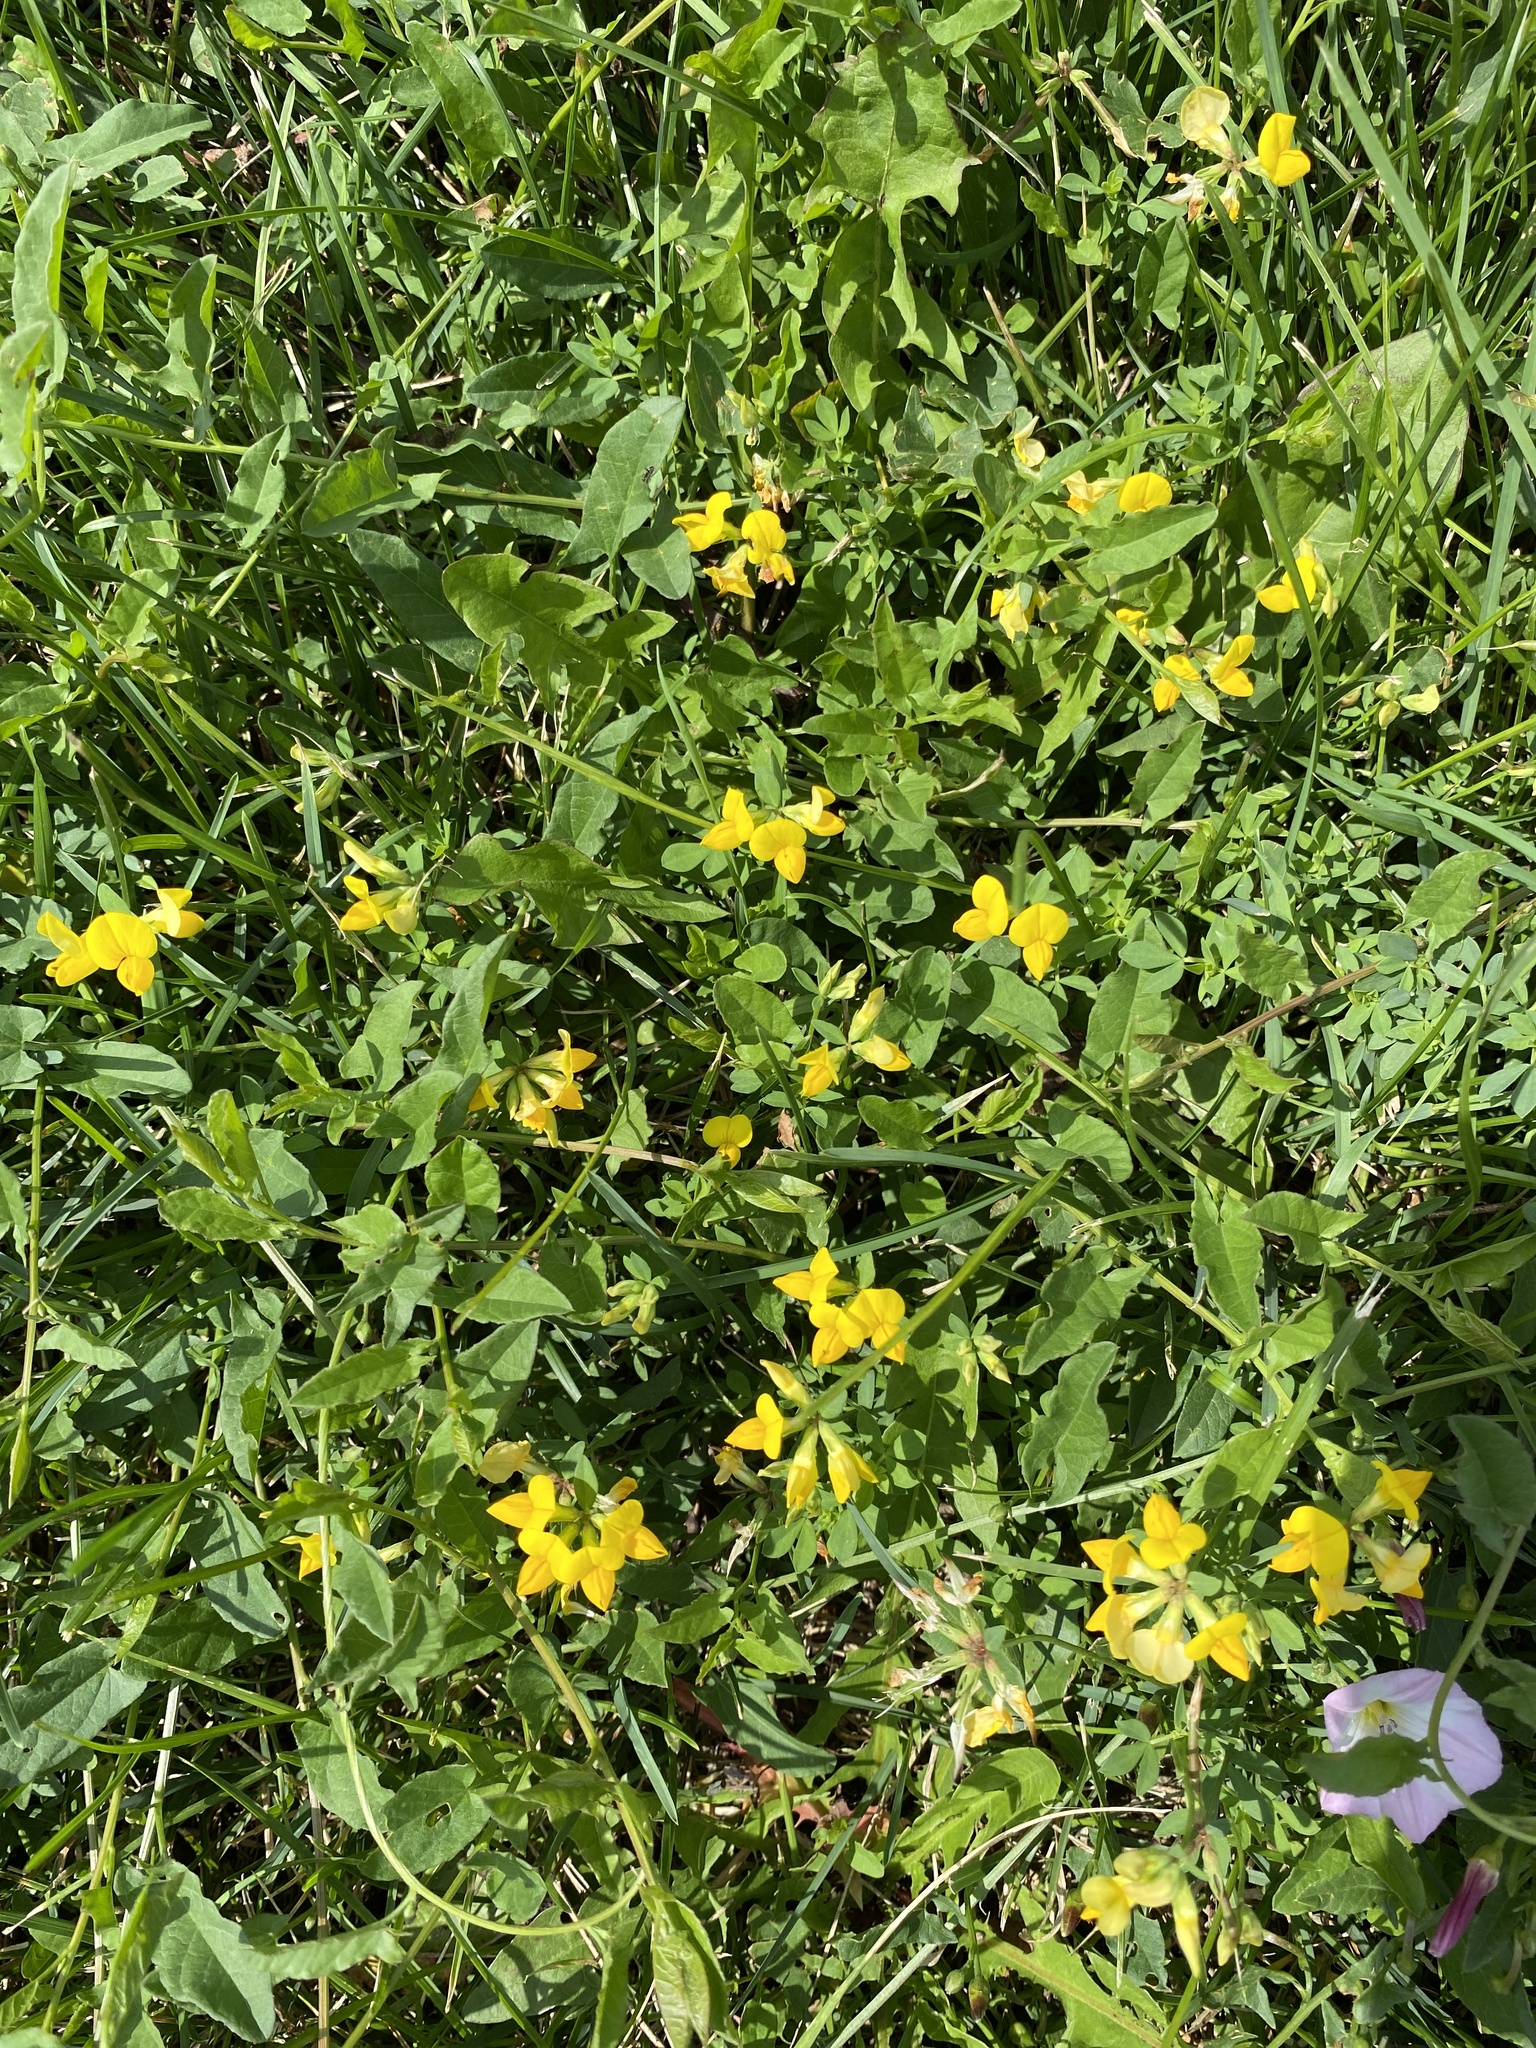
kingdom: Plantae
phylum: Tracheophyta
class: Magnoliopsida
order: Fabales
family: Fabaceae
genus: Lotus
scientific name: Lotus corniculatus
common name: Common bird's-foot-trefoil
